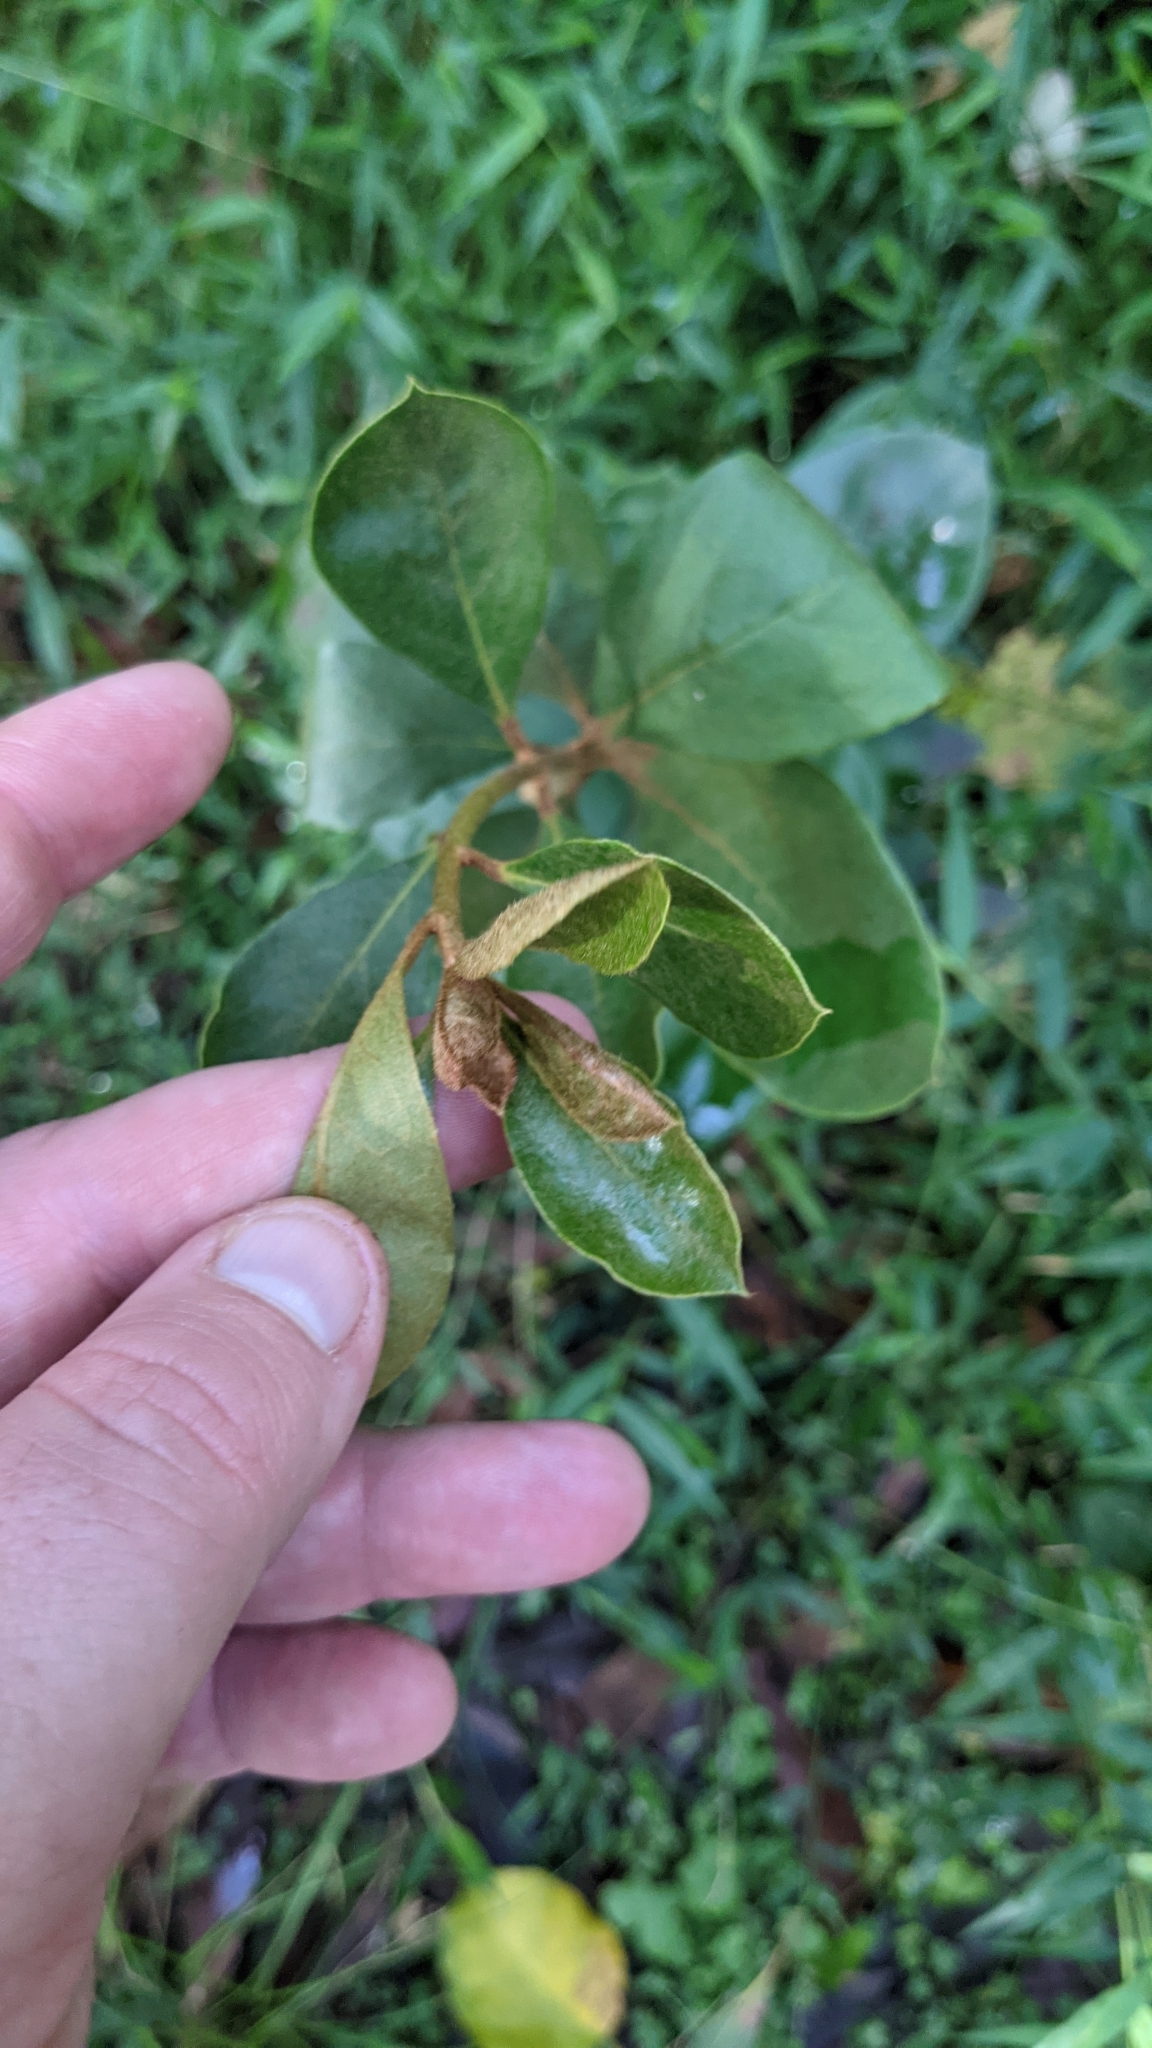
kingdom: Plantae
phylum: Tracheophyta
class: Magnoliopsida
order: Apiales
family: Pittosporaceae
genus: Pittosporum
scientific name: Pittosporum revolutum
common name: Brisbane-laurel
